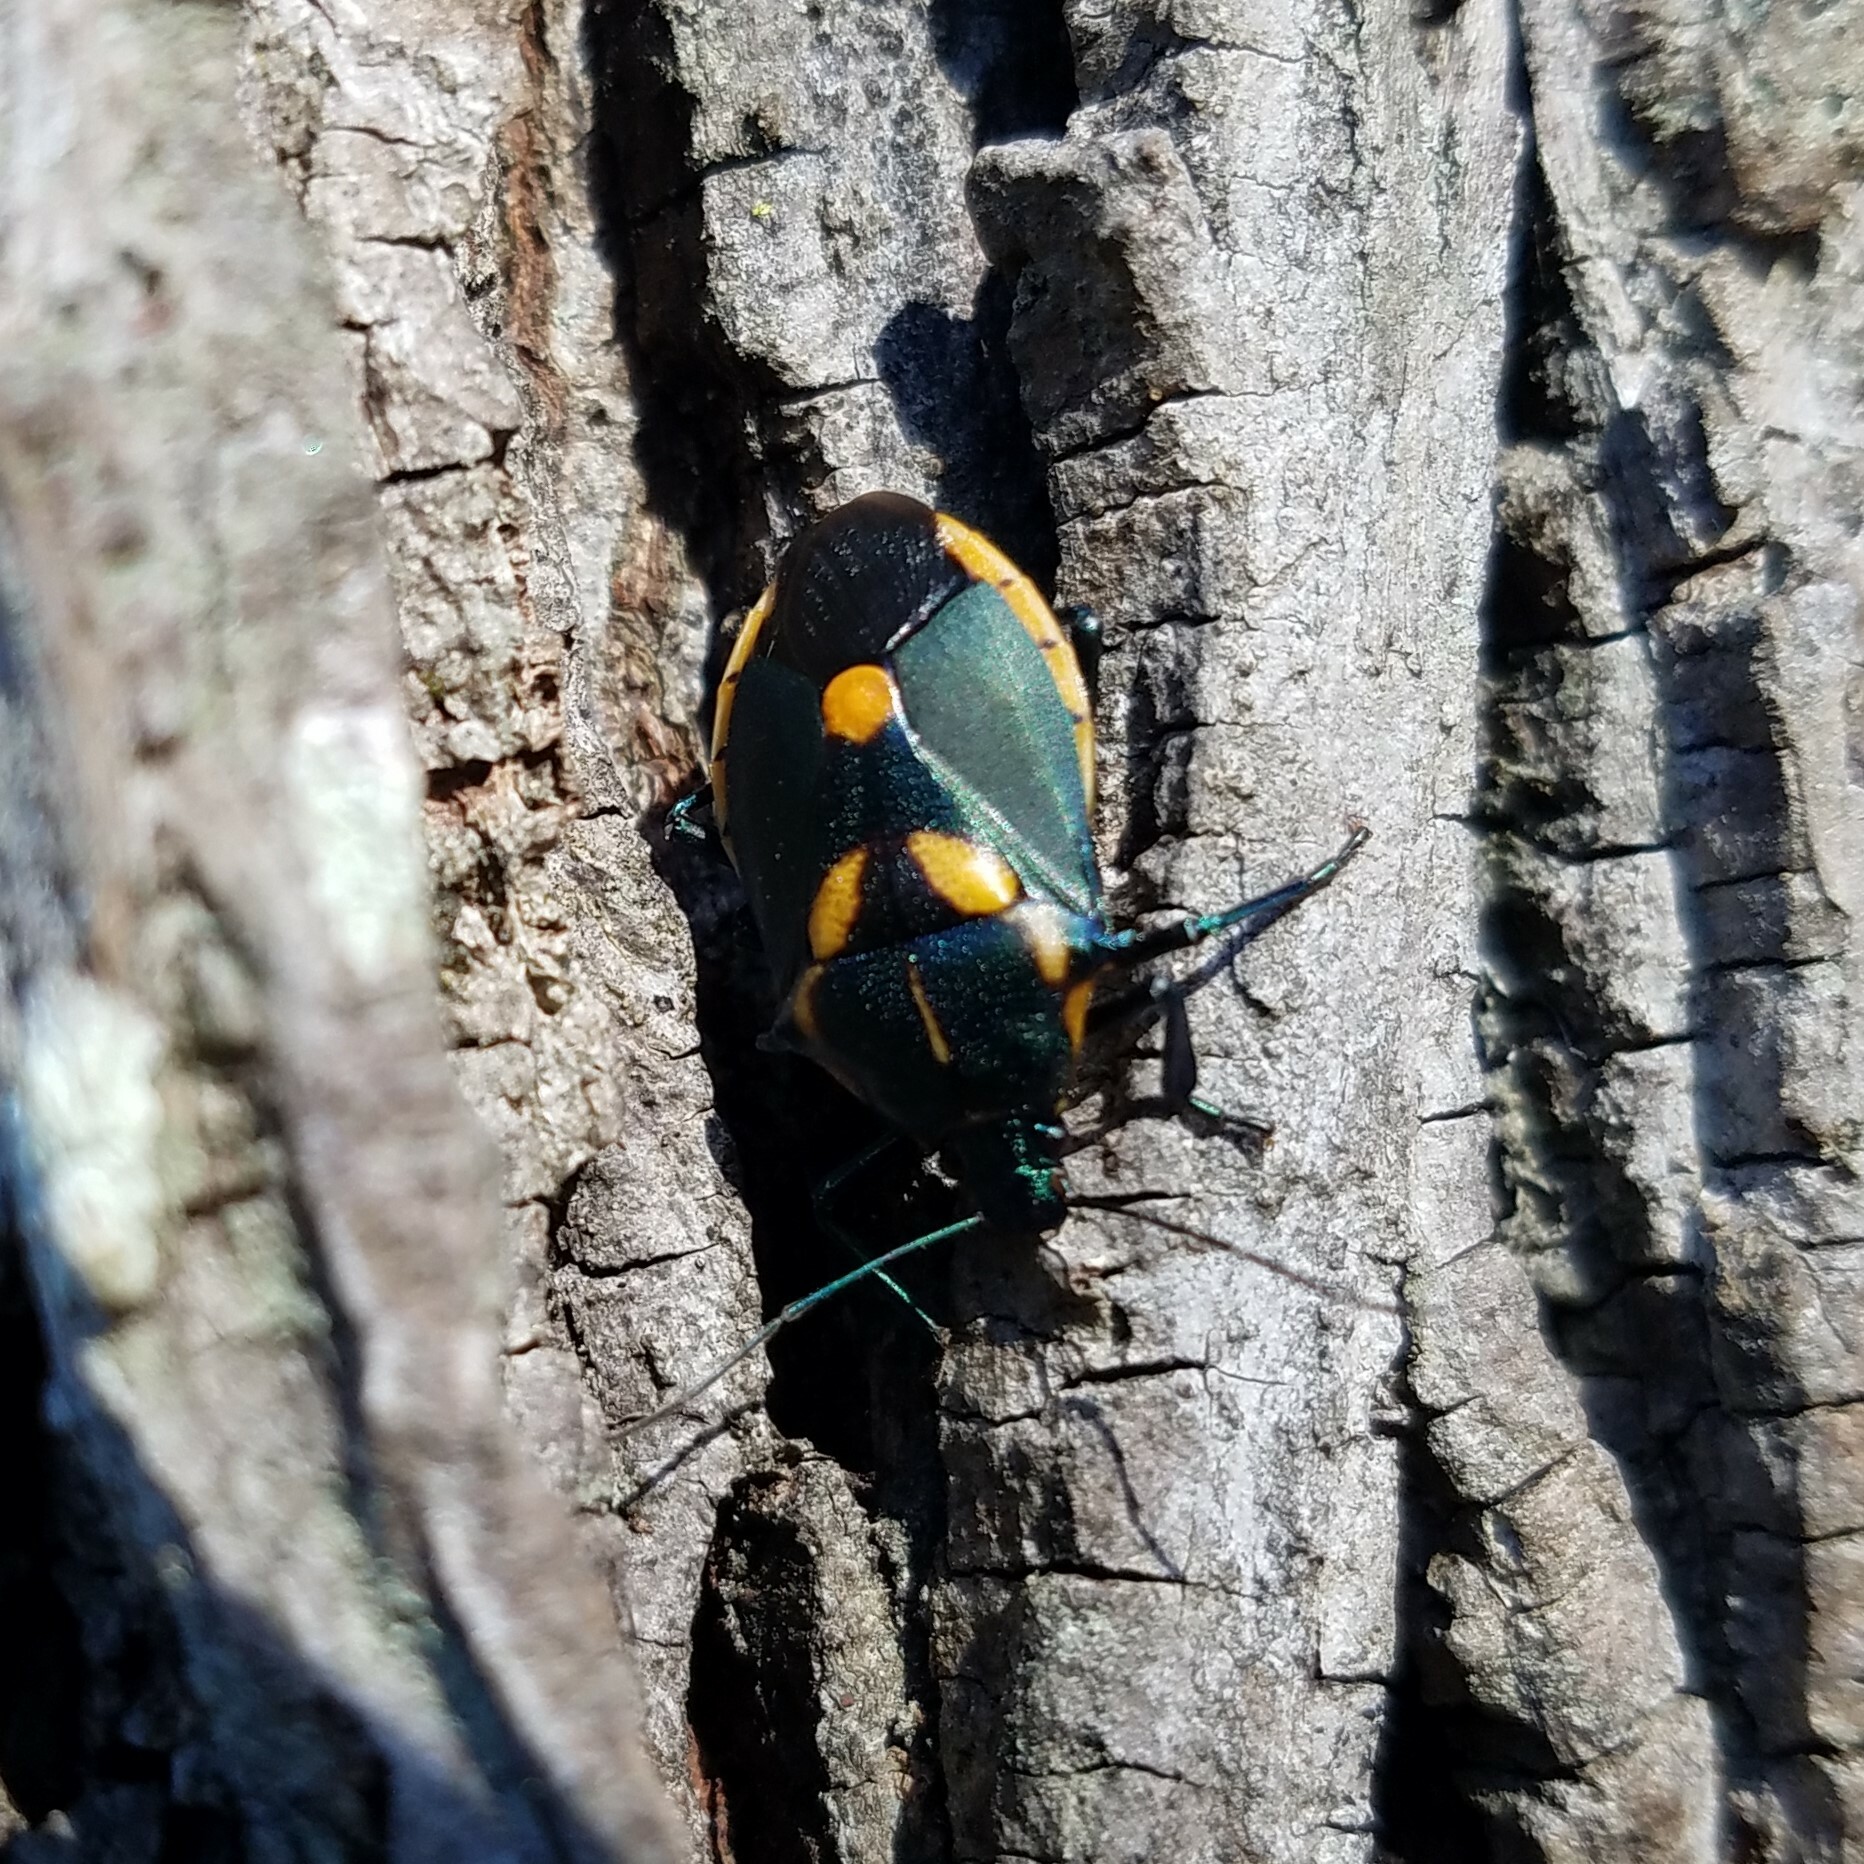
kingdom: Animalia
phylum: Arthropoda
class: Insecta
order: Hemiptera
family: Pentatomidae
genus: Euthyrhynchus
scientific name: Euthyrhynchus floridanus
